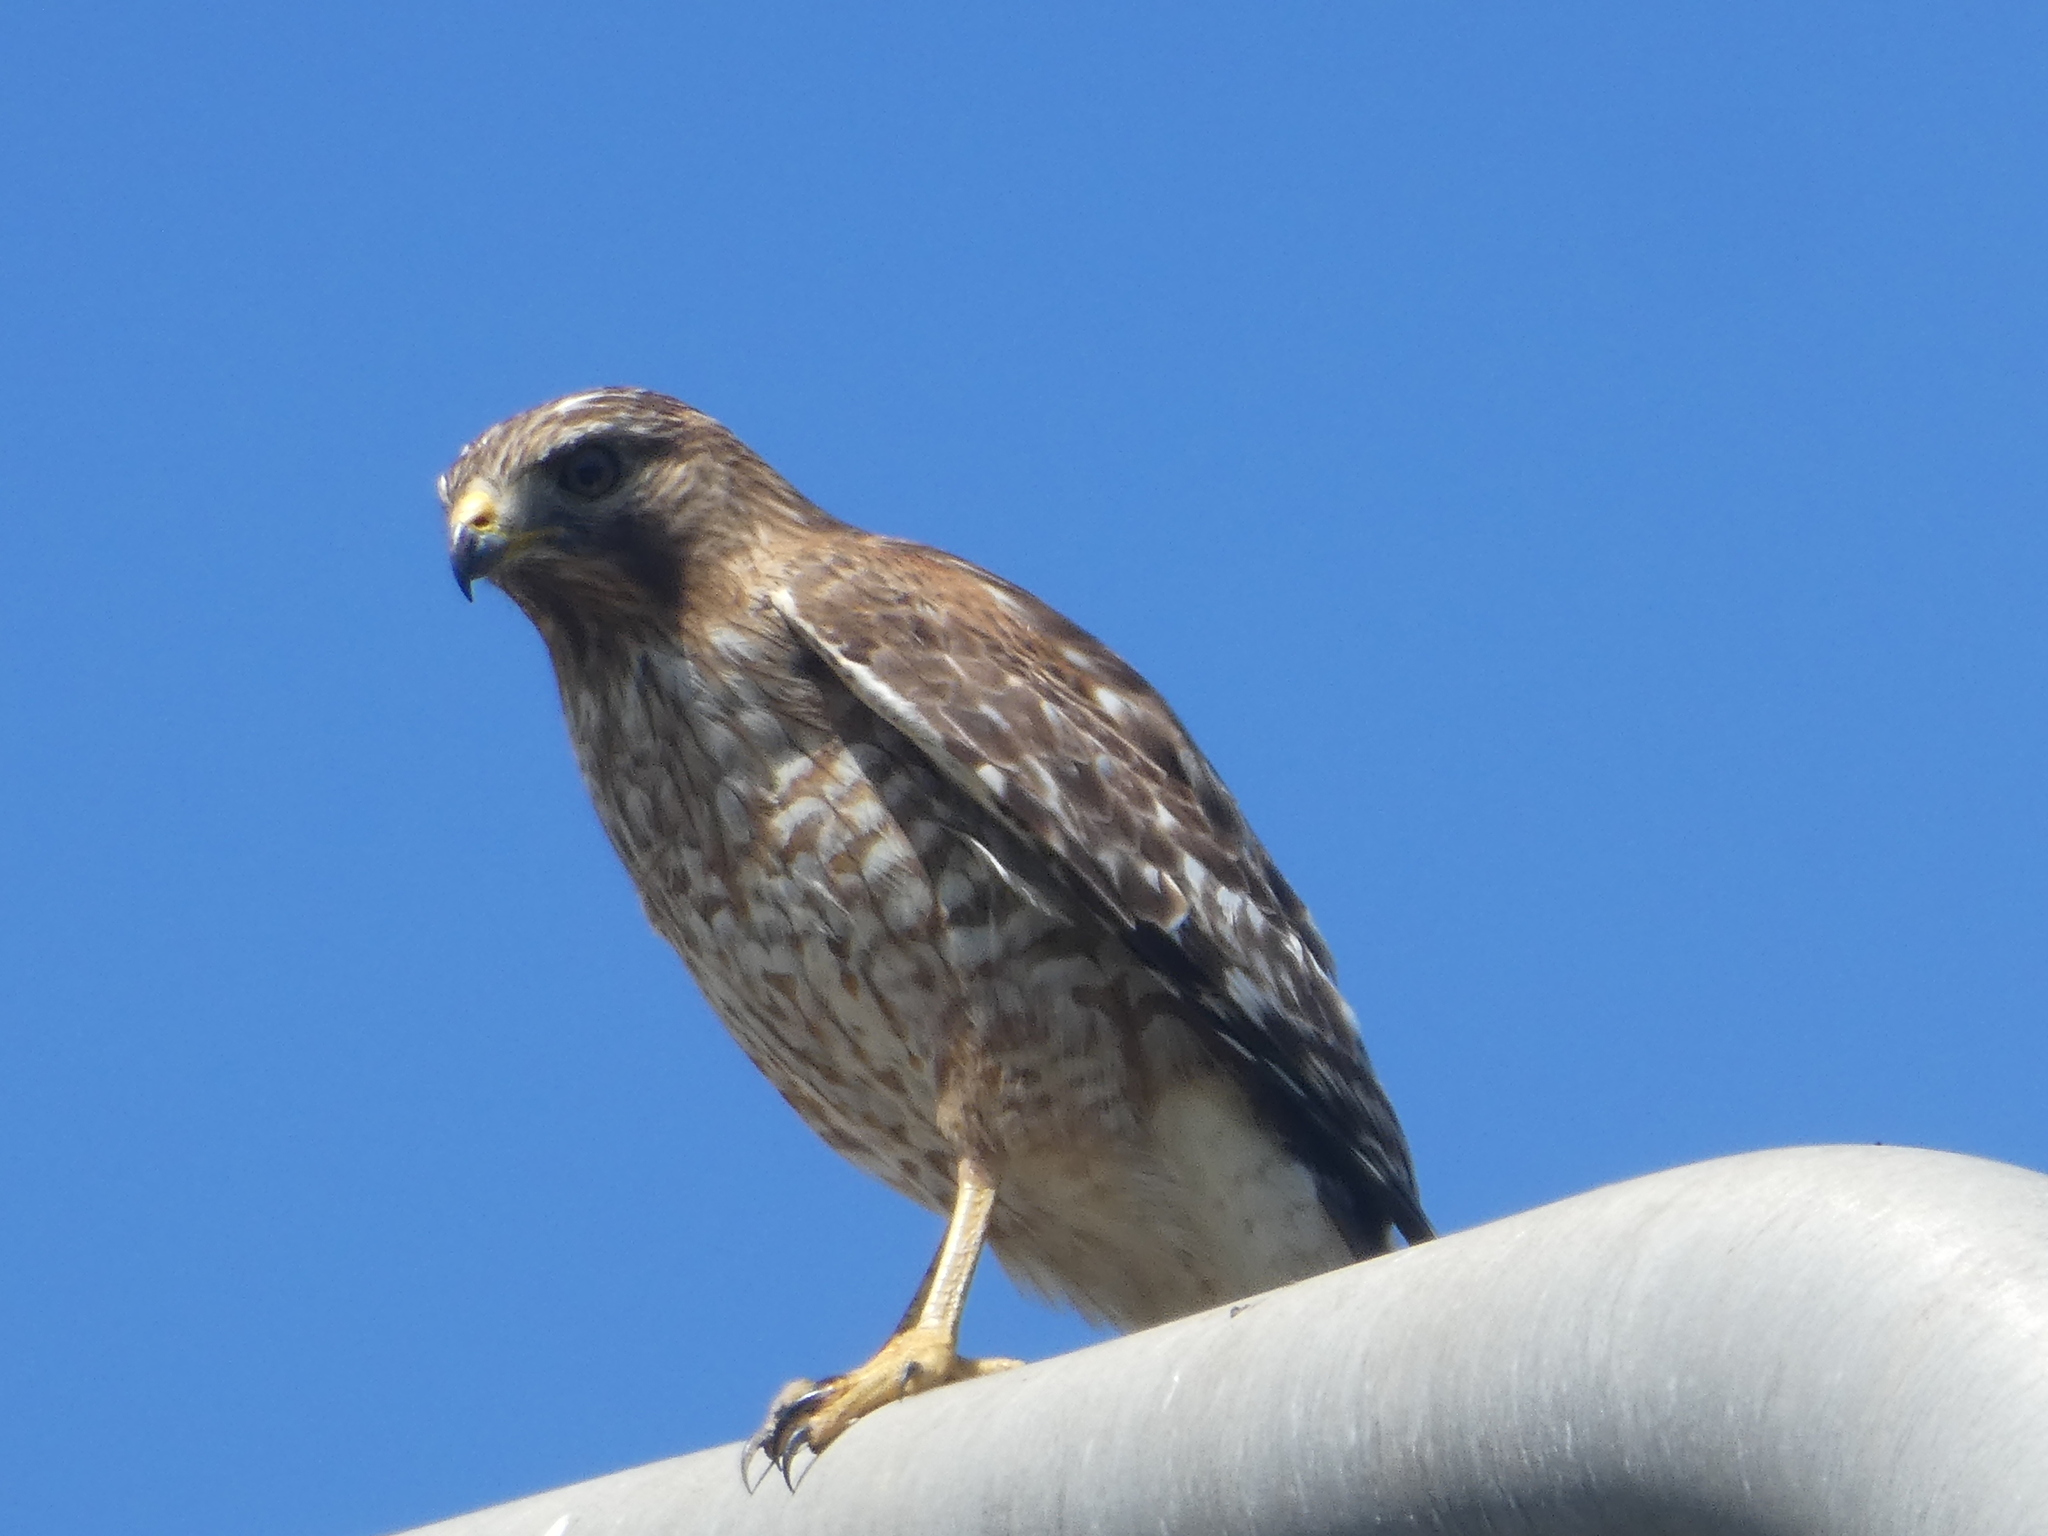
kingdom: Animalia
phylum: Chordata
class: Aves
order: Accipitriformes
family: Accipitridae
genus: Buteo
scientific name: Buteo lineatus
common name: Red-shouldered hawk
